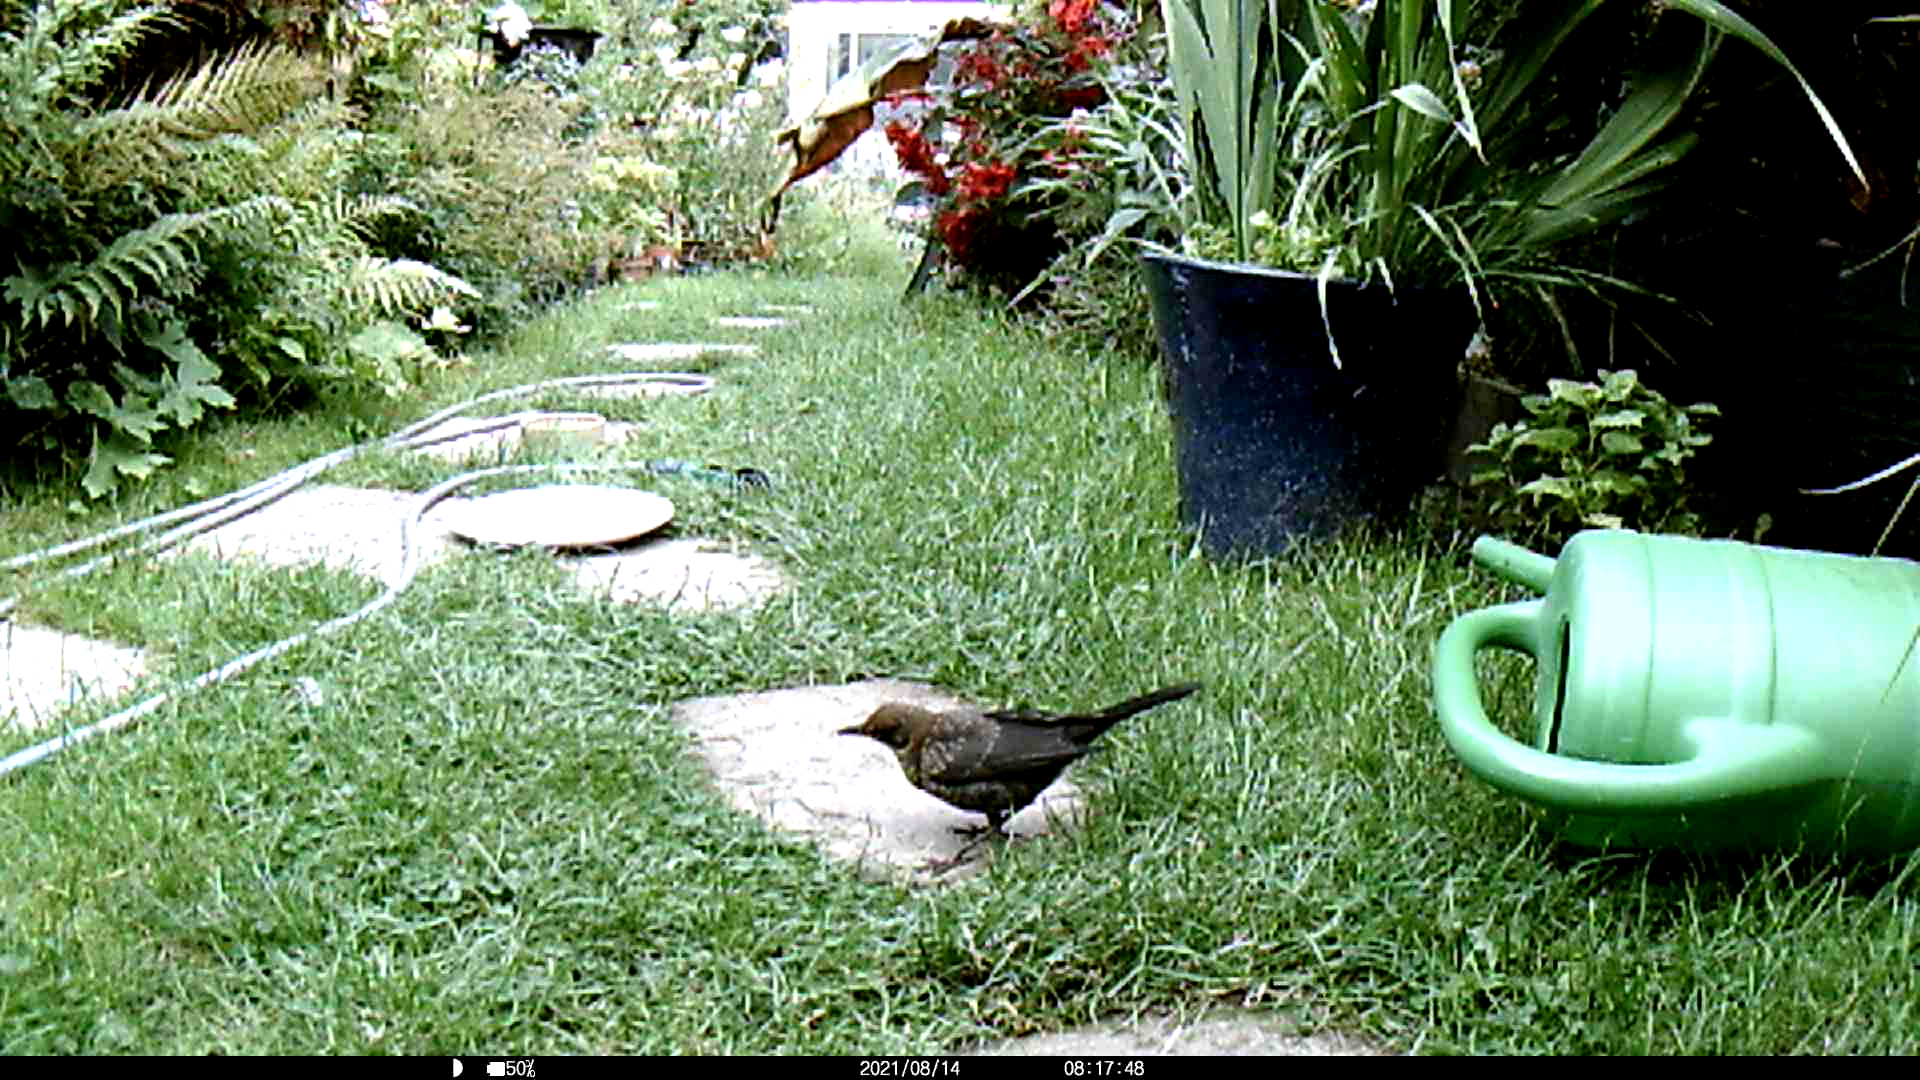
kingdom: Animalia
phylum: Chordata
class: Aves
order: Passeriformes
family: Turdidae
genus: Turdus
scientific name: Turdus merula
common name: Common blackbird
